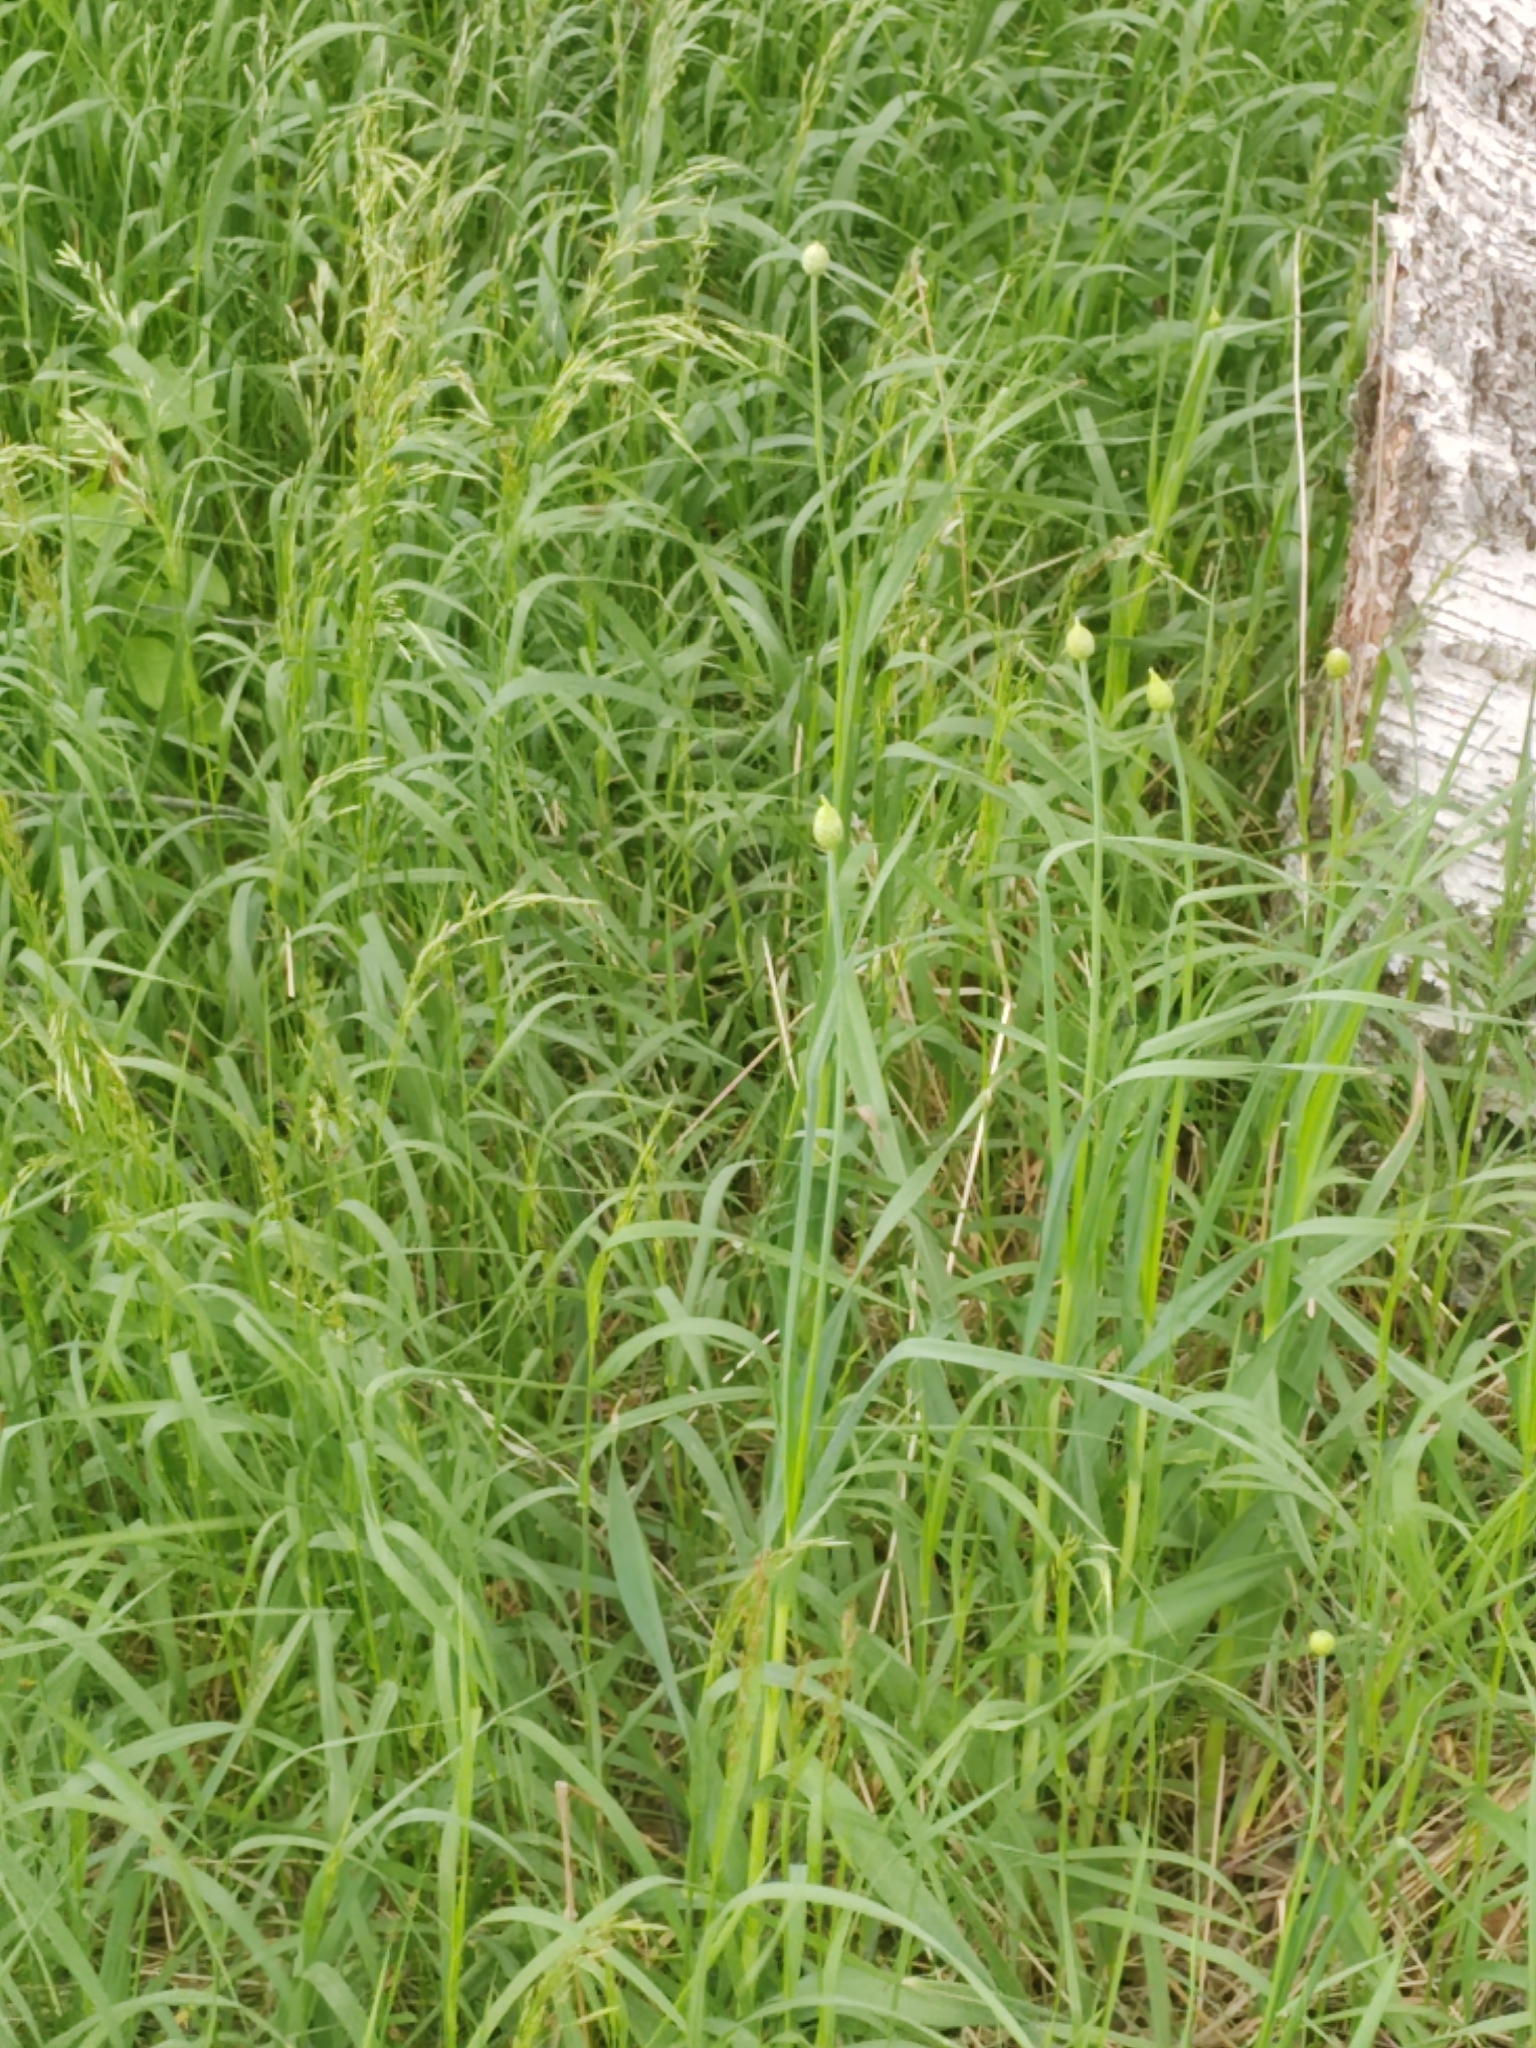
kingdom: Plantae
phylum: Tracheophyta
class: Liliopsida
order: Asparagales
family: Amaryllidaceae
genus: Allium
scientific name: Allium obliquum
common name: Oblique onion
